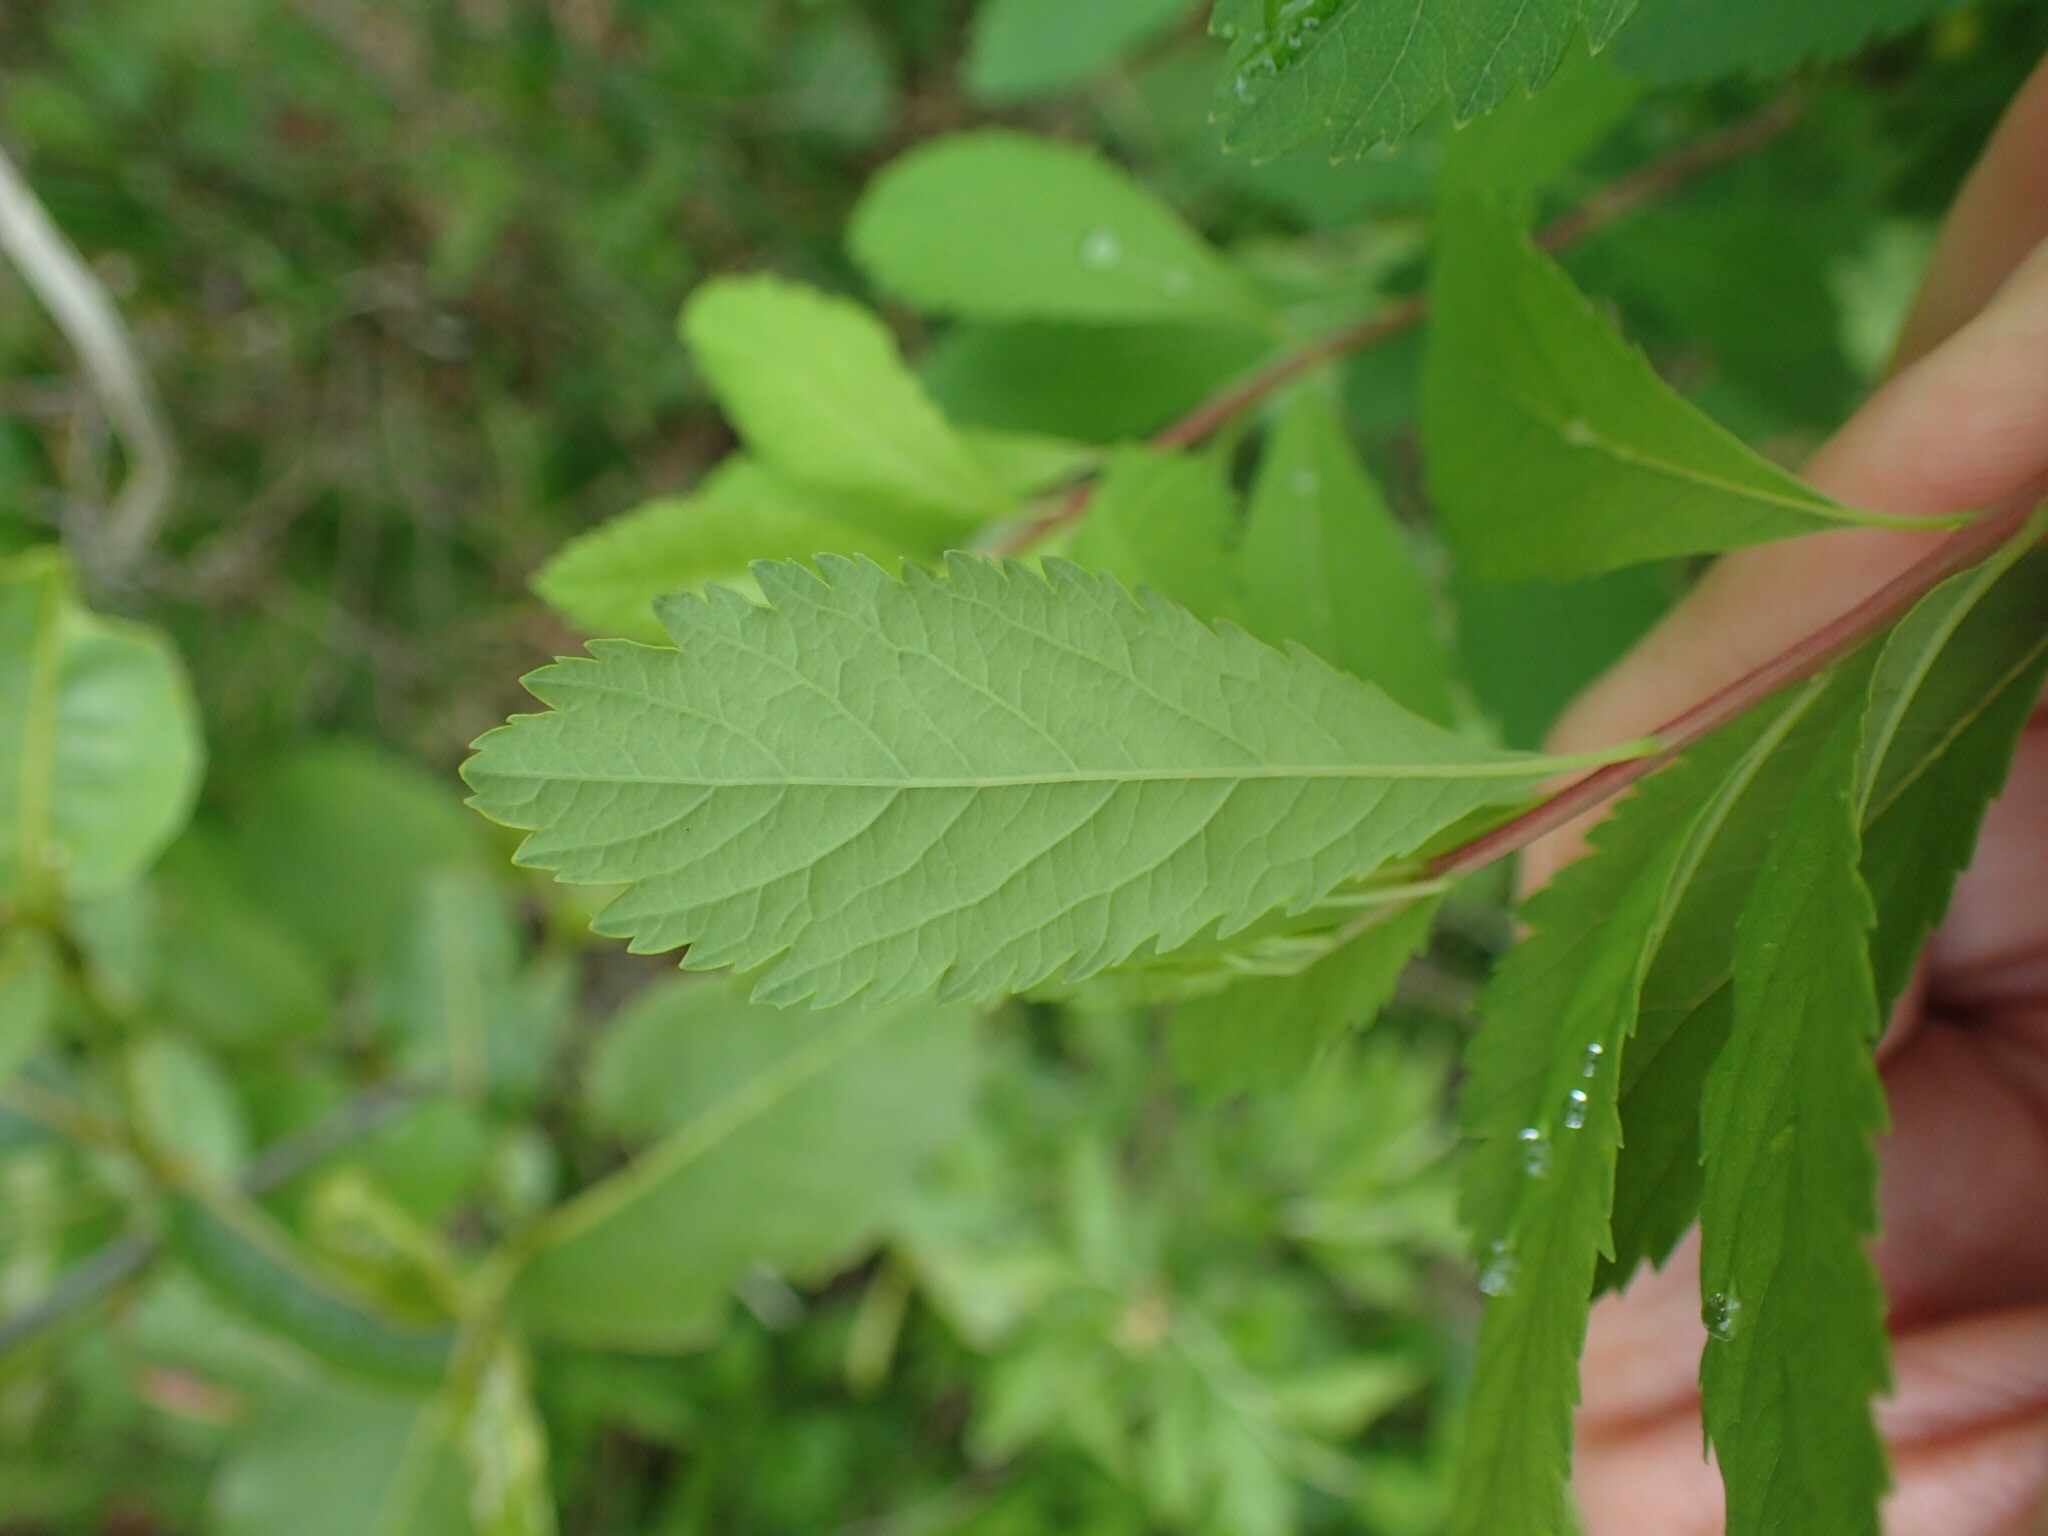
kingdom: Plantae
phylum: Tracheophyta
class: Magnoliopsida
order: Rosales
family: Rosaceae
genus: Spiraea
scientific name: Spiraea alba
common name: Pale bridewort
